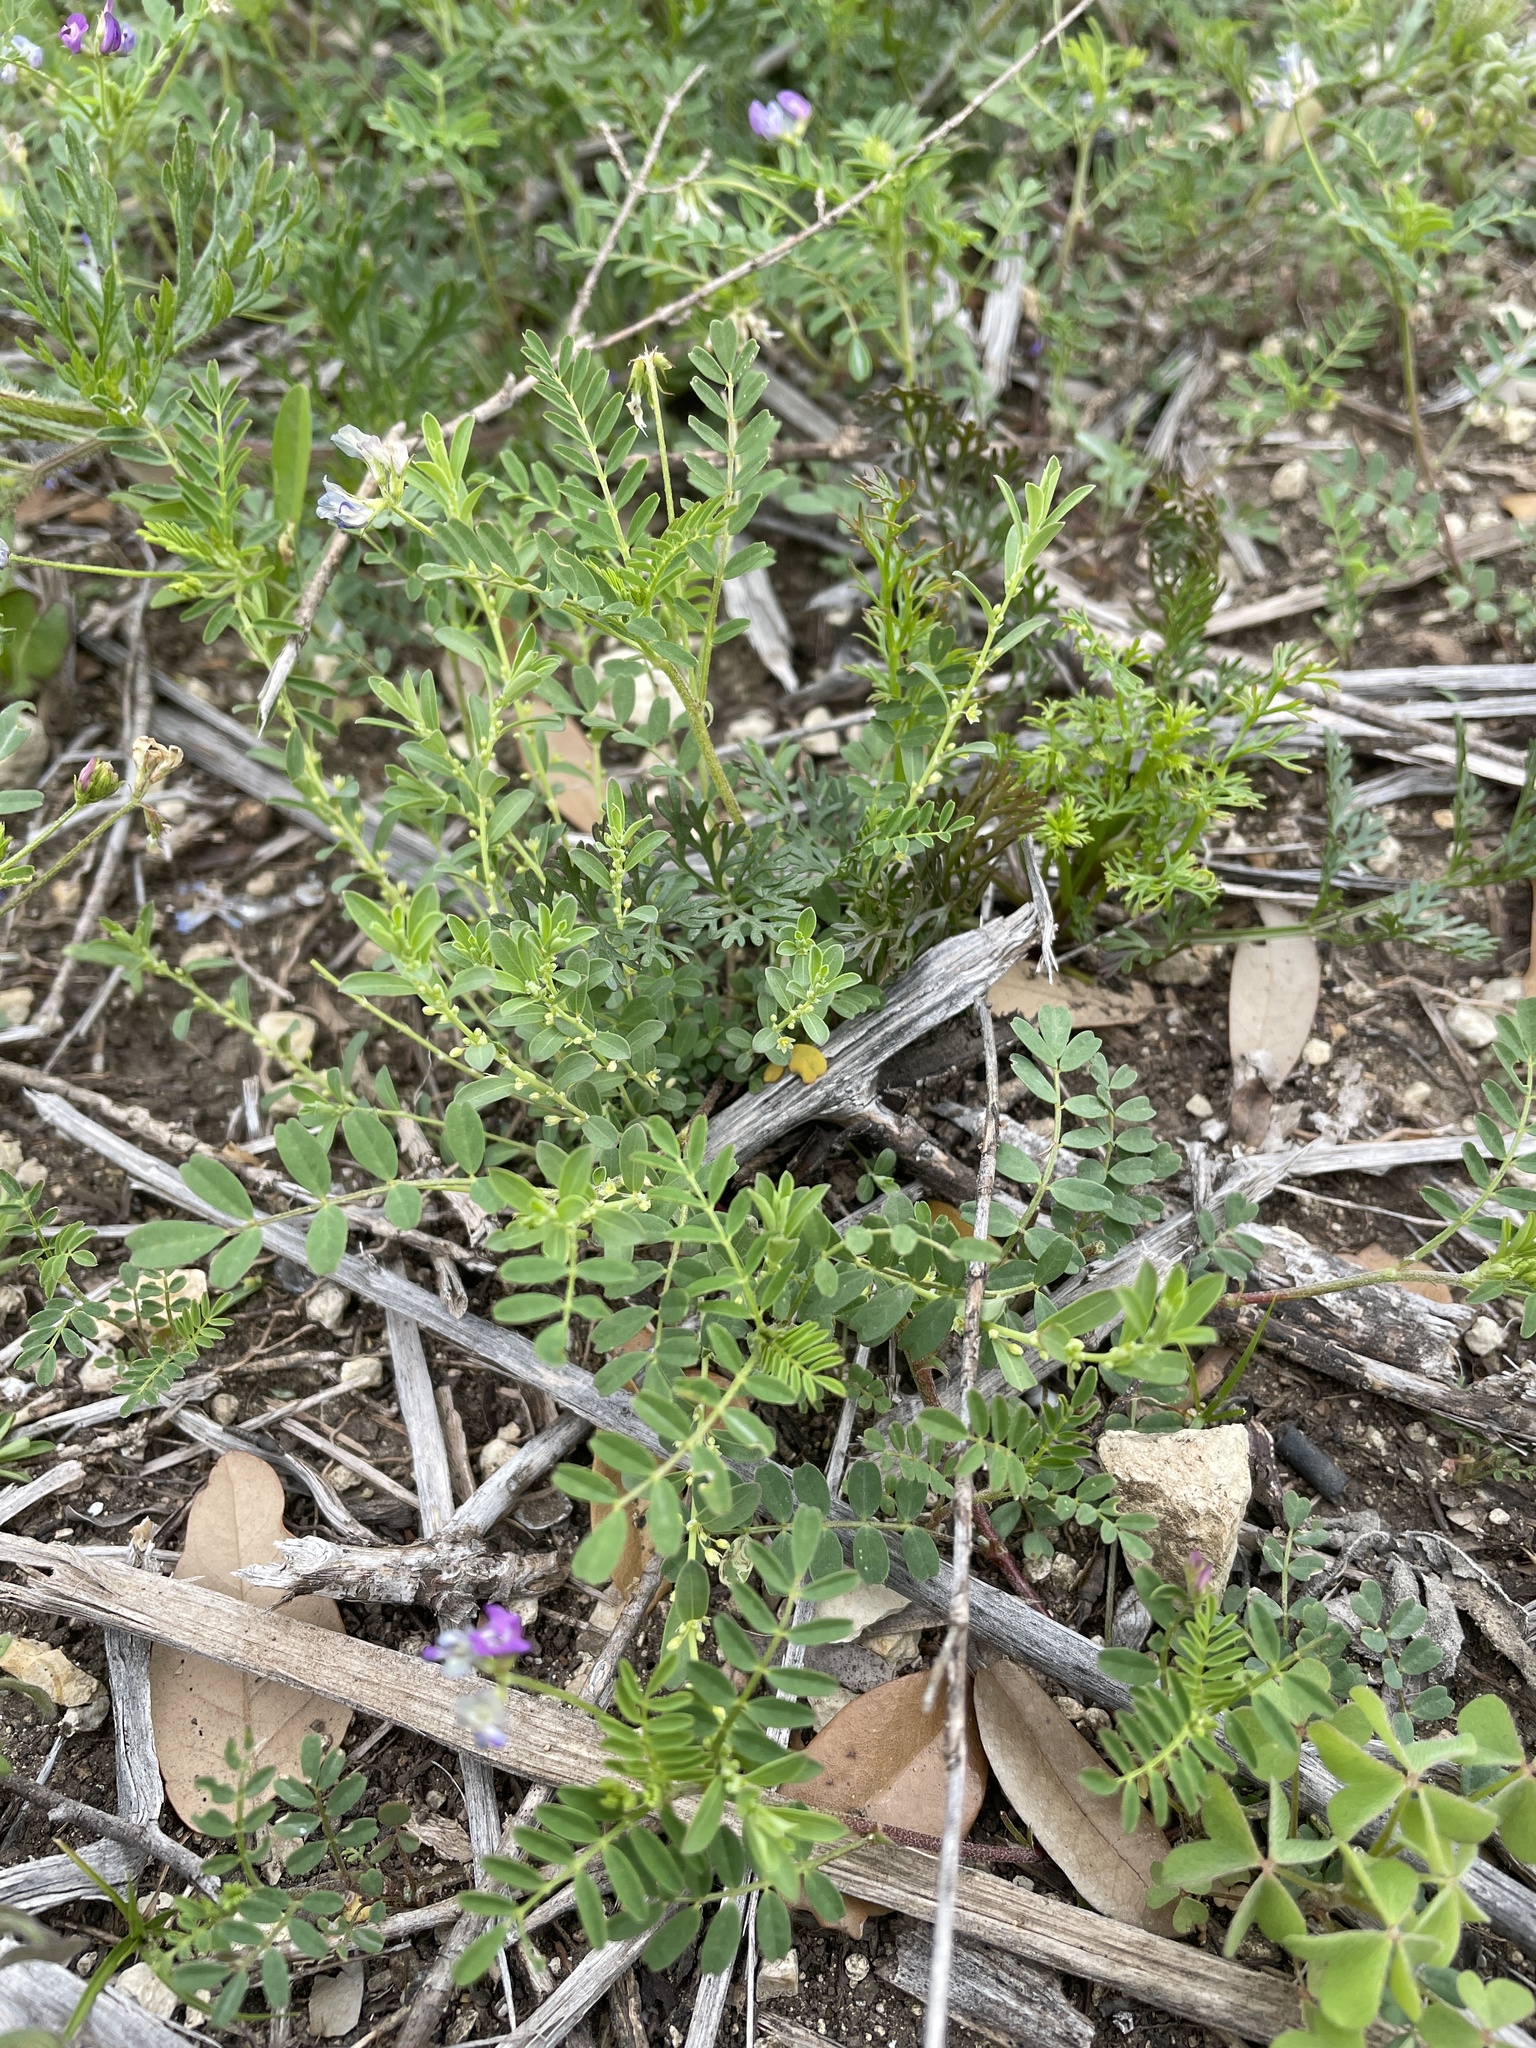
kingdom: Plantae
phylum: Tracheophyta
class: Magnoliopsida
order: Malpighiales
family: Phyllanthaceae
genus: Phyllanthus
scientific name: Phyllanthus polygonoides
